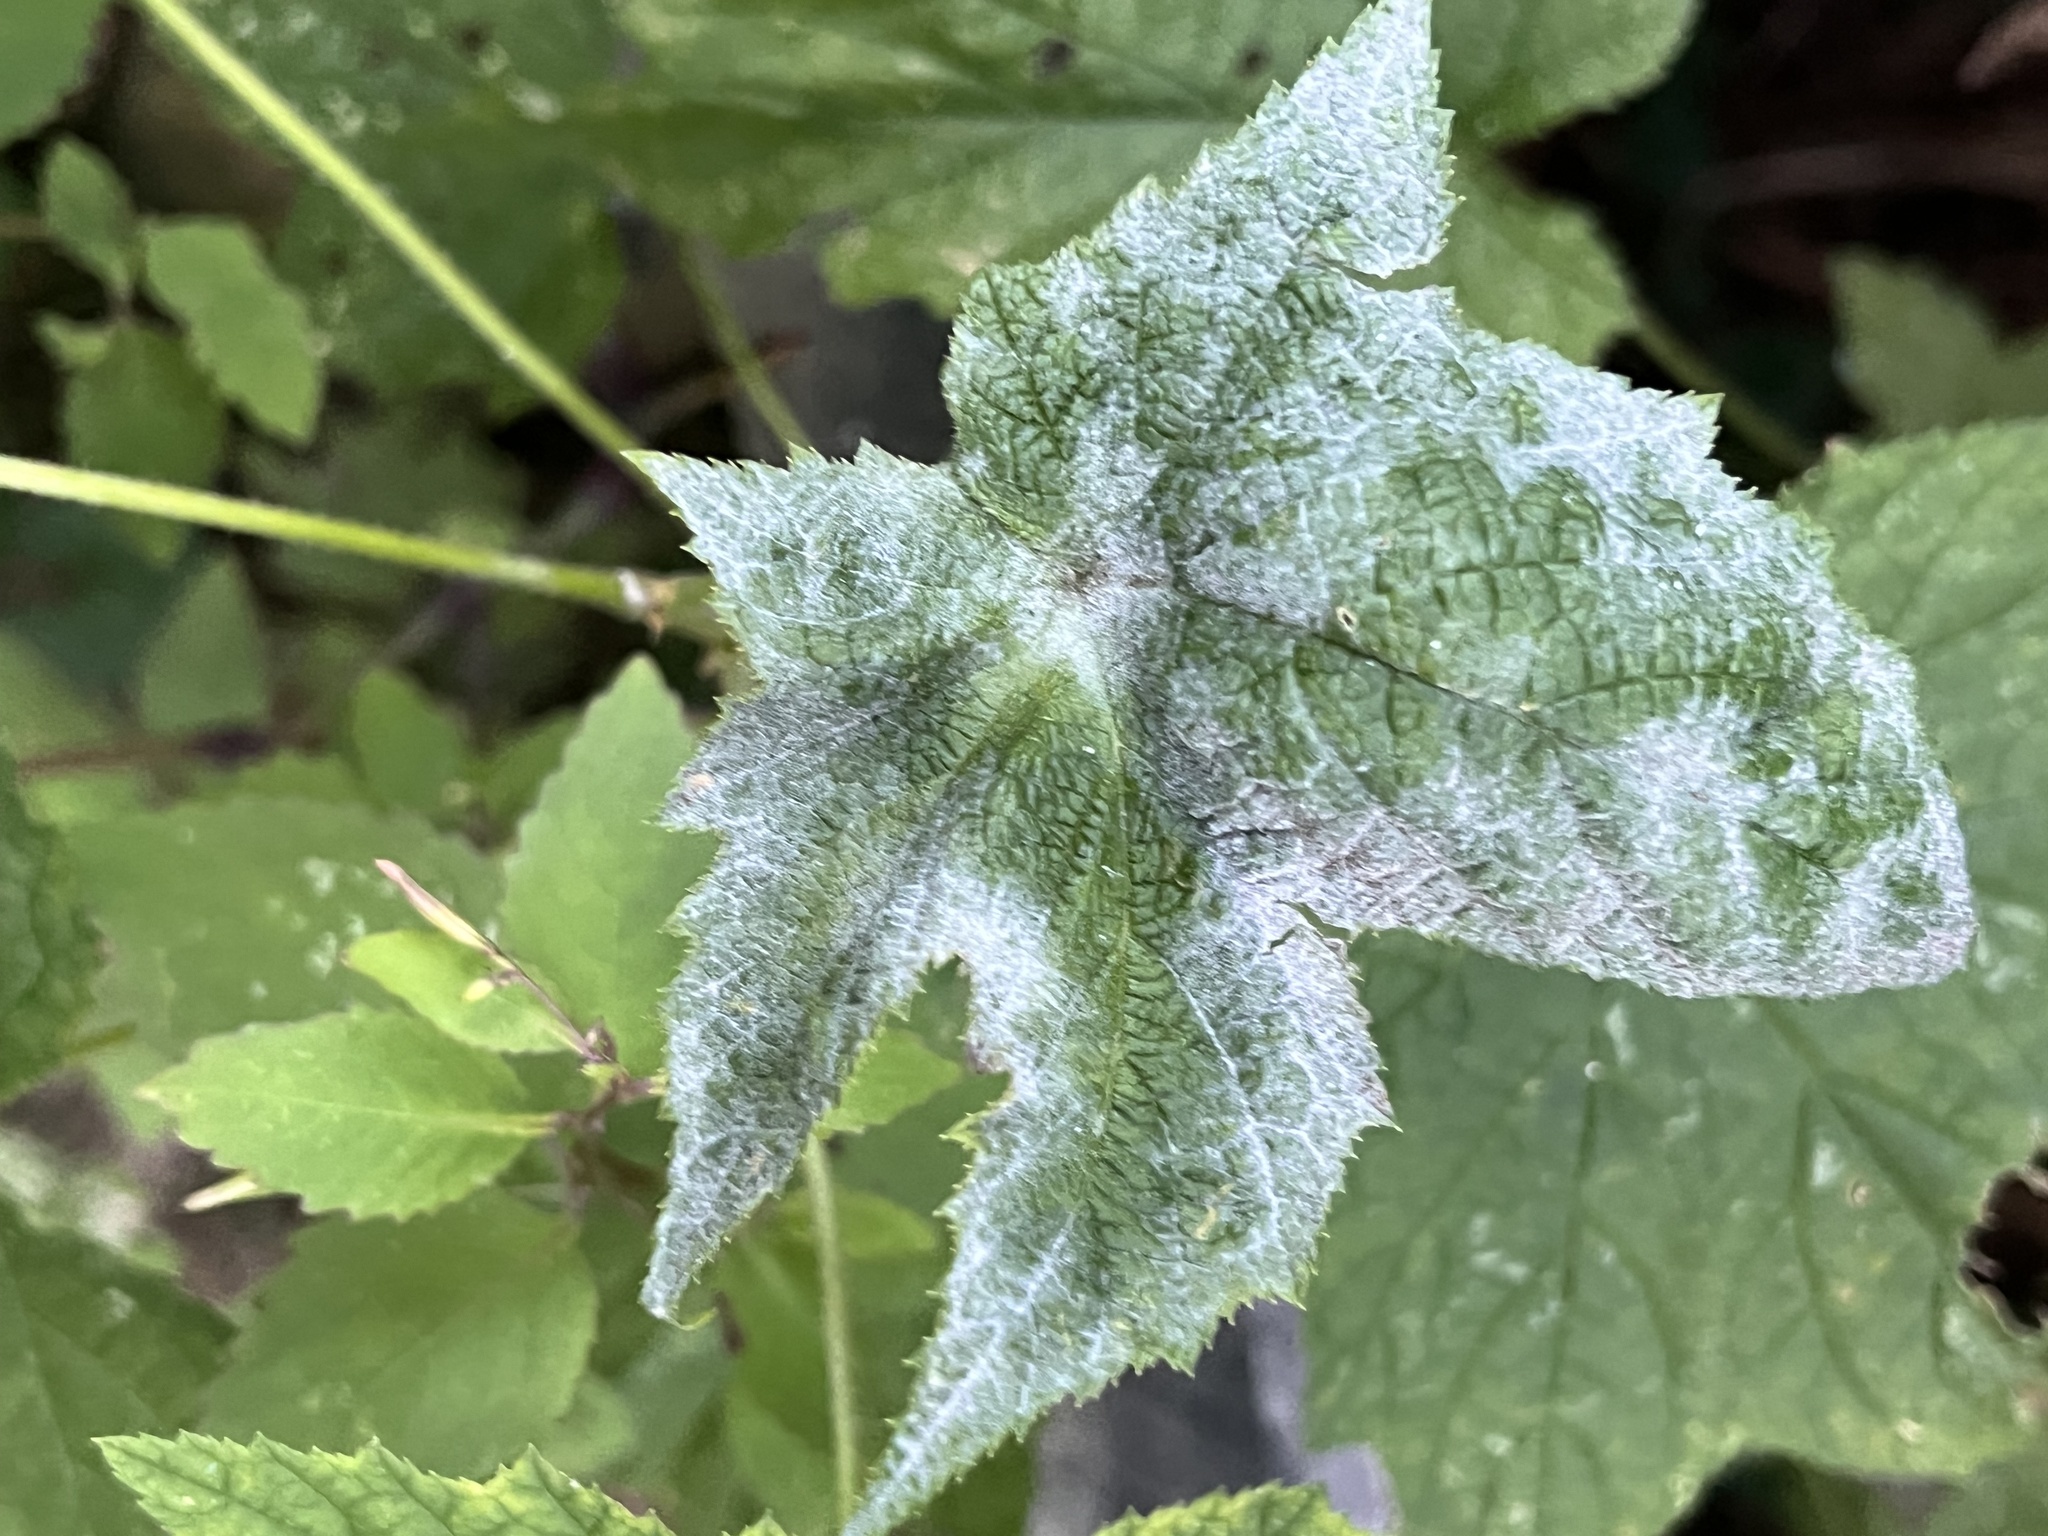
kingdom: Plantae
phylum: Tracheophyta
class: Magnoliopsida
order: Rosales
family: Rosaceae
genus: Rubus
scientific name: Rubus odoratus
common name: Purple-flowered raspberry
